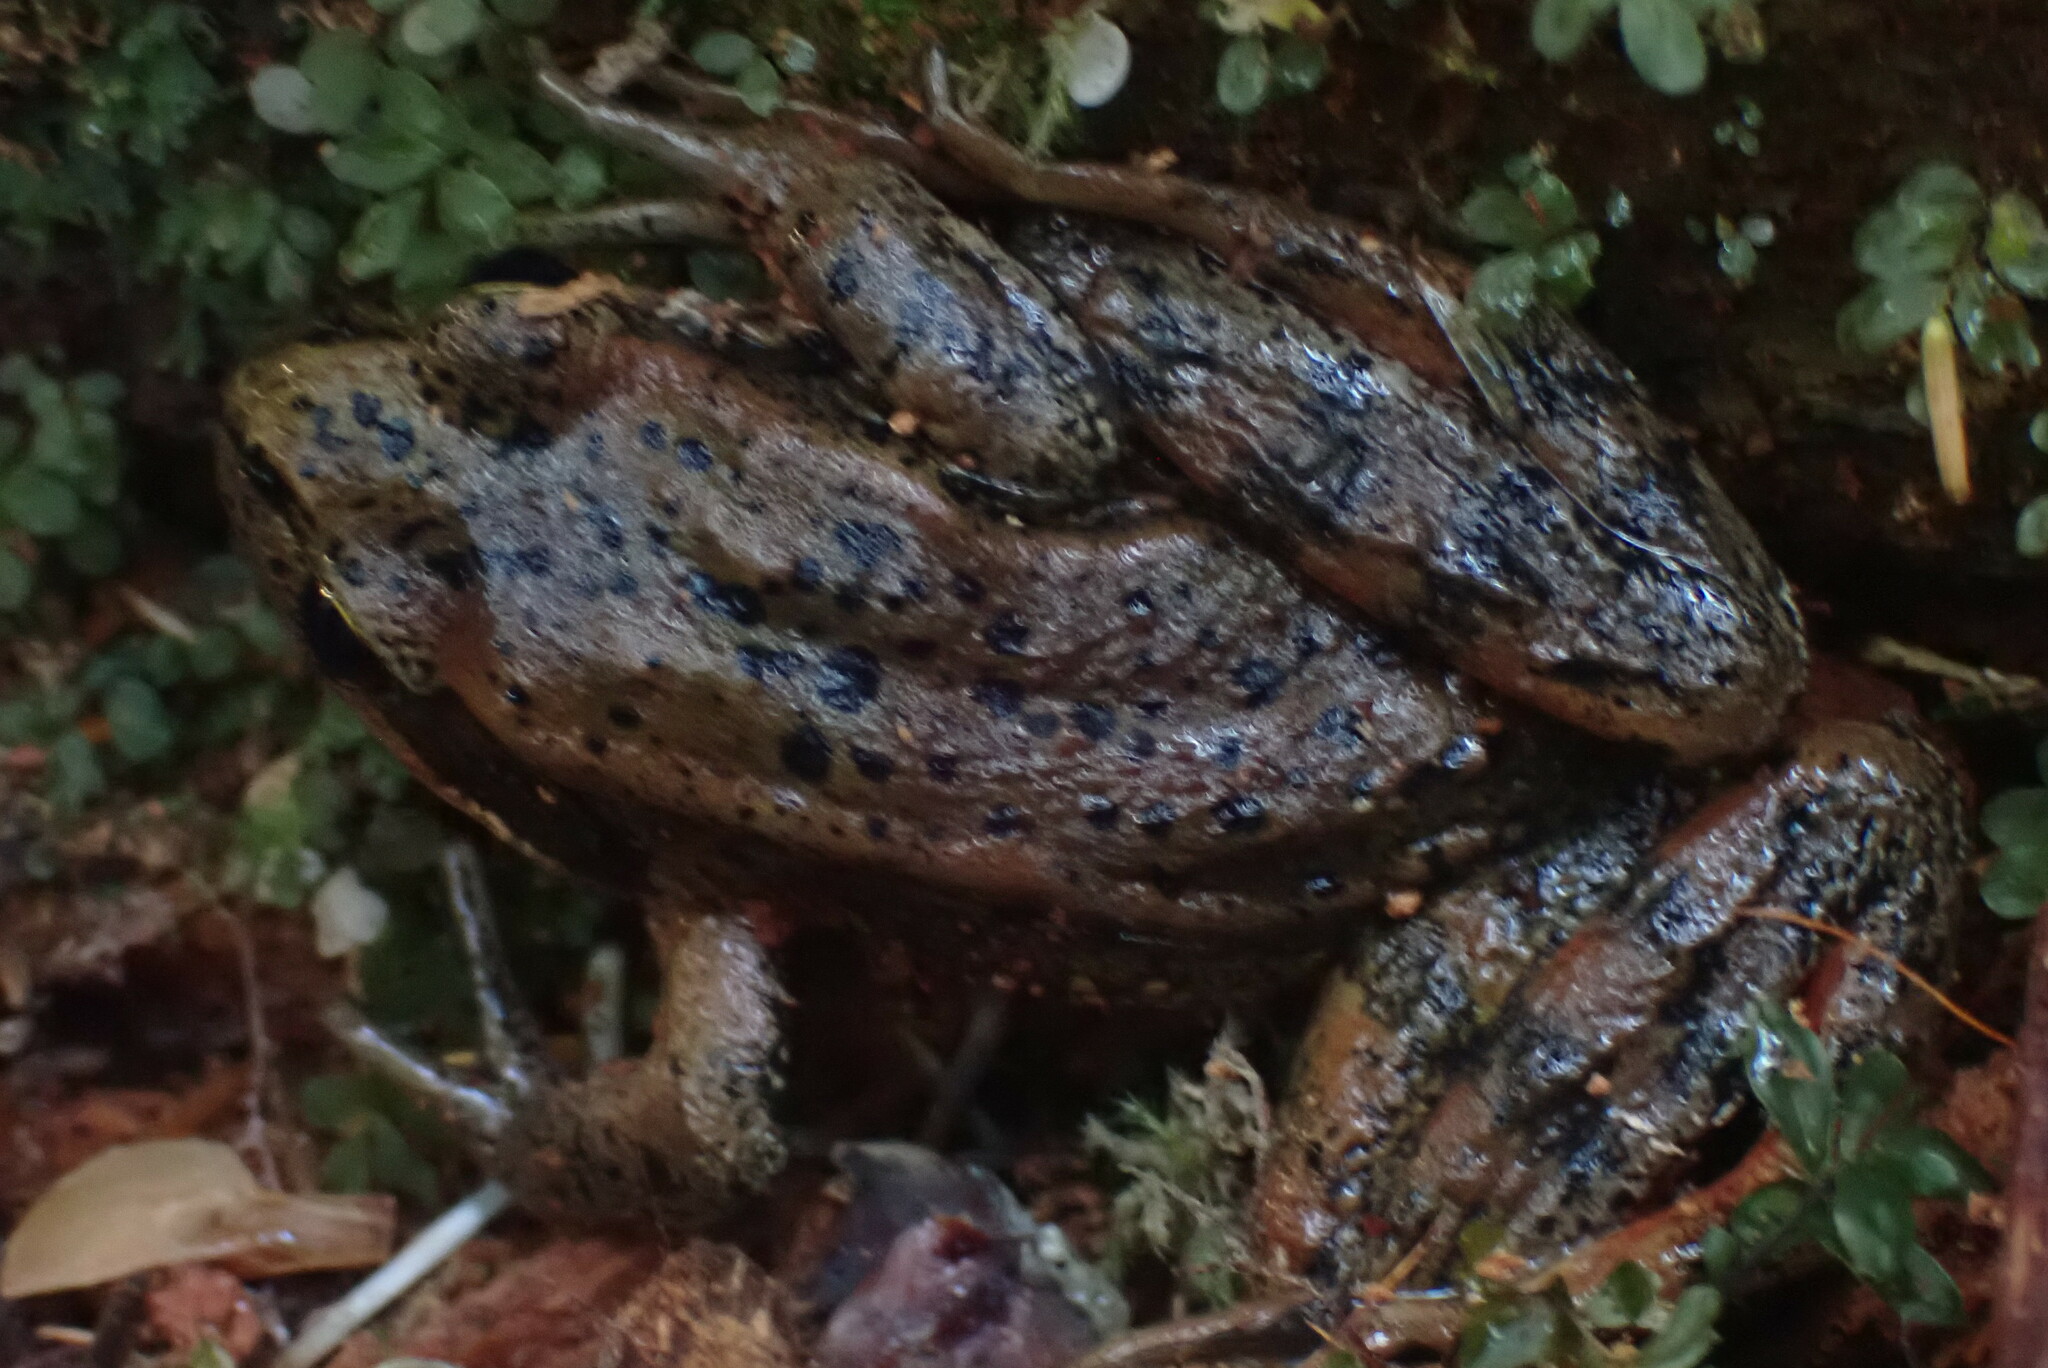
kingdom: Animalia
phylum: Chordata
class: Amphibia
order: Anura
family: Ranidae
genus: Rana
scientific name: Rana aurora
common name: Red-legged frog
